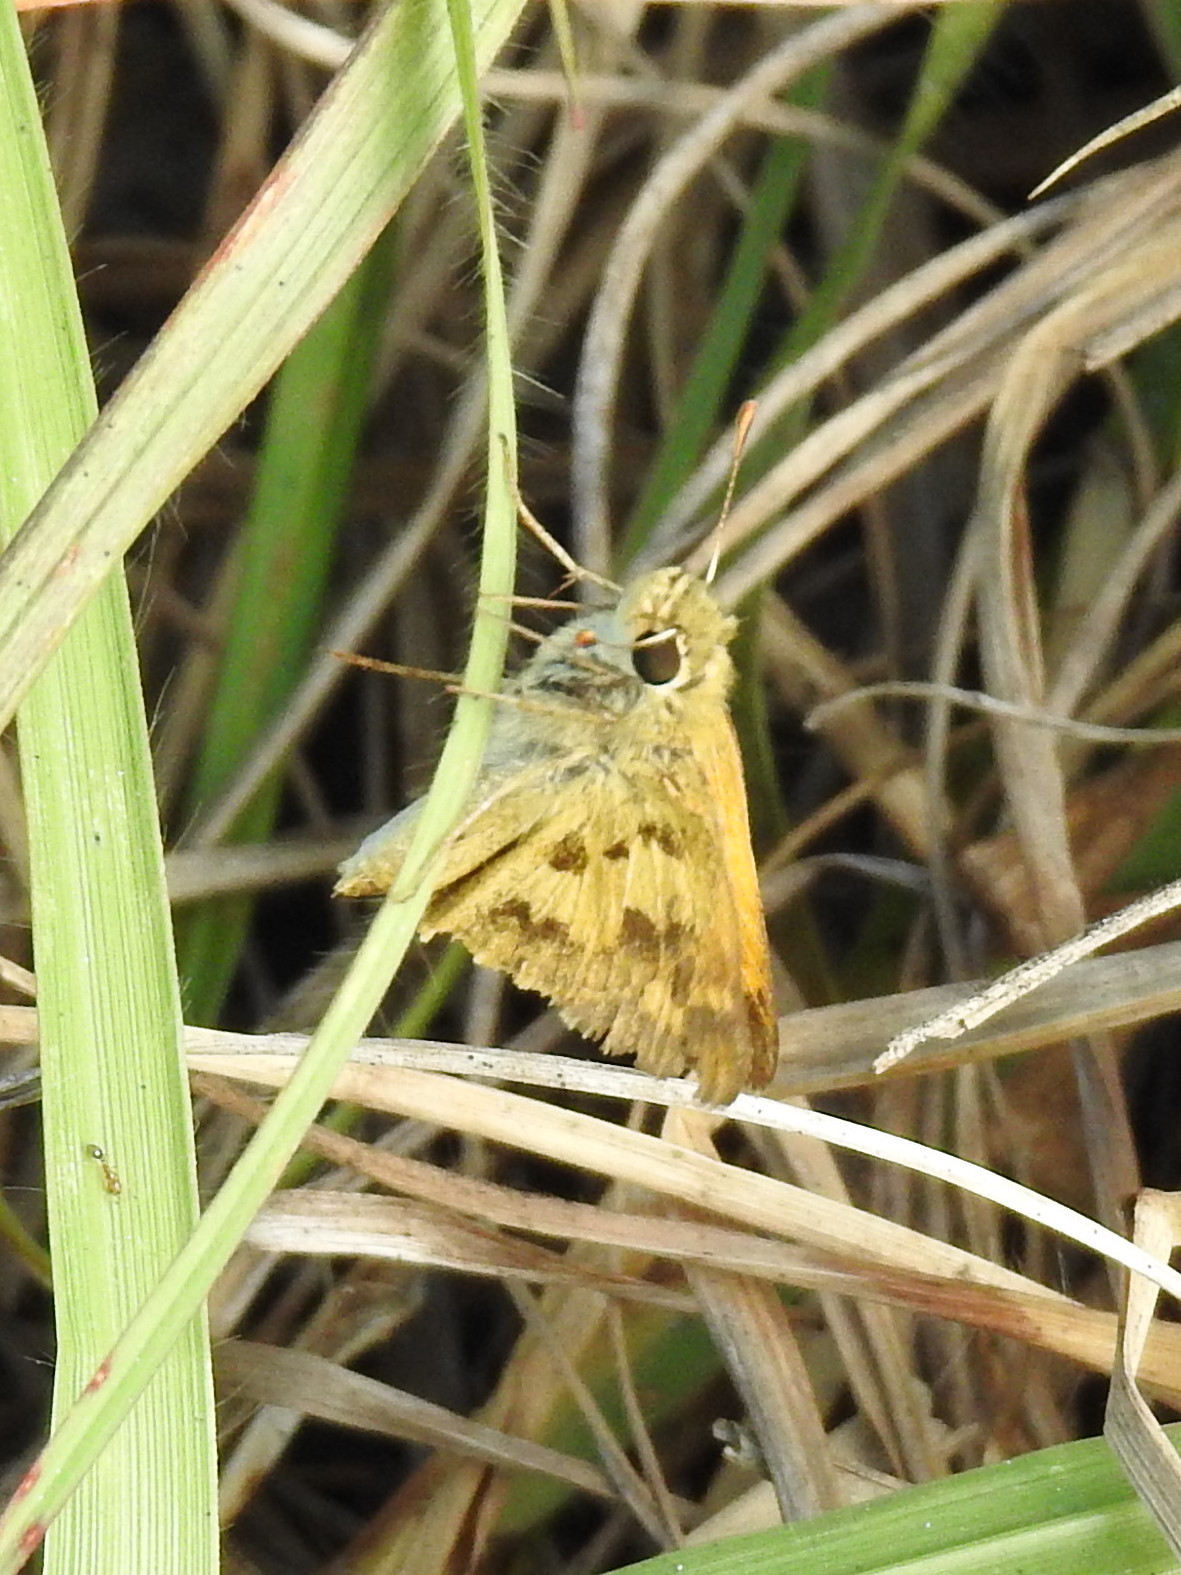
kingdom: Animalia
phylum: Arthropoda
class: Insecta
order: Lepidoptera
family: Hesperiidae
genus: Polites
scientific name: Polites vibex
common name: Whirlabout
